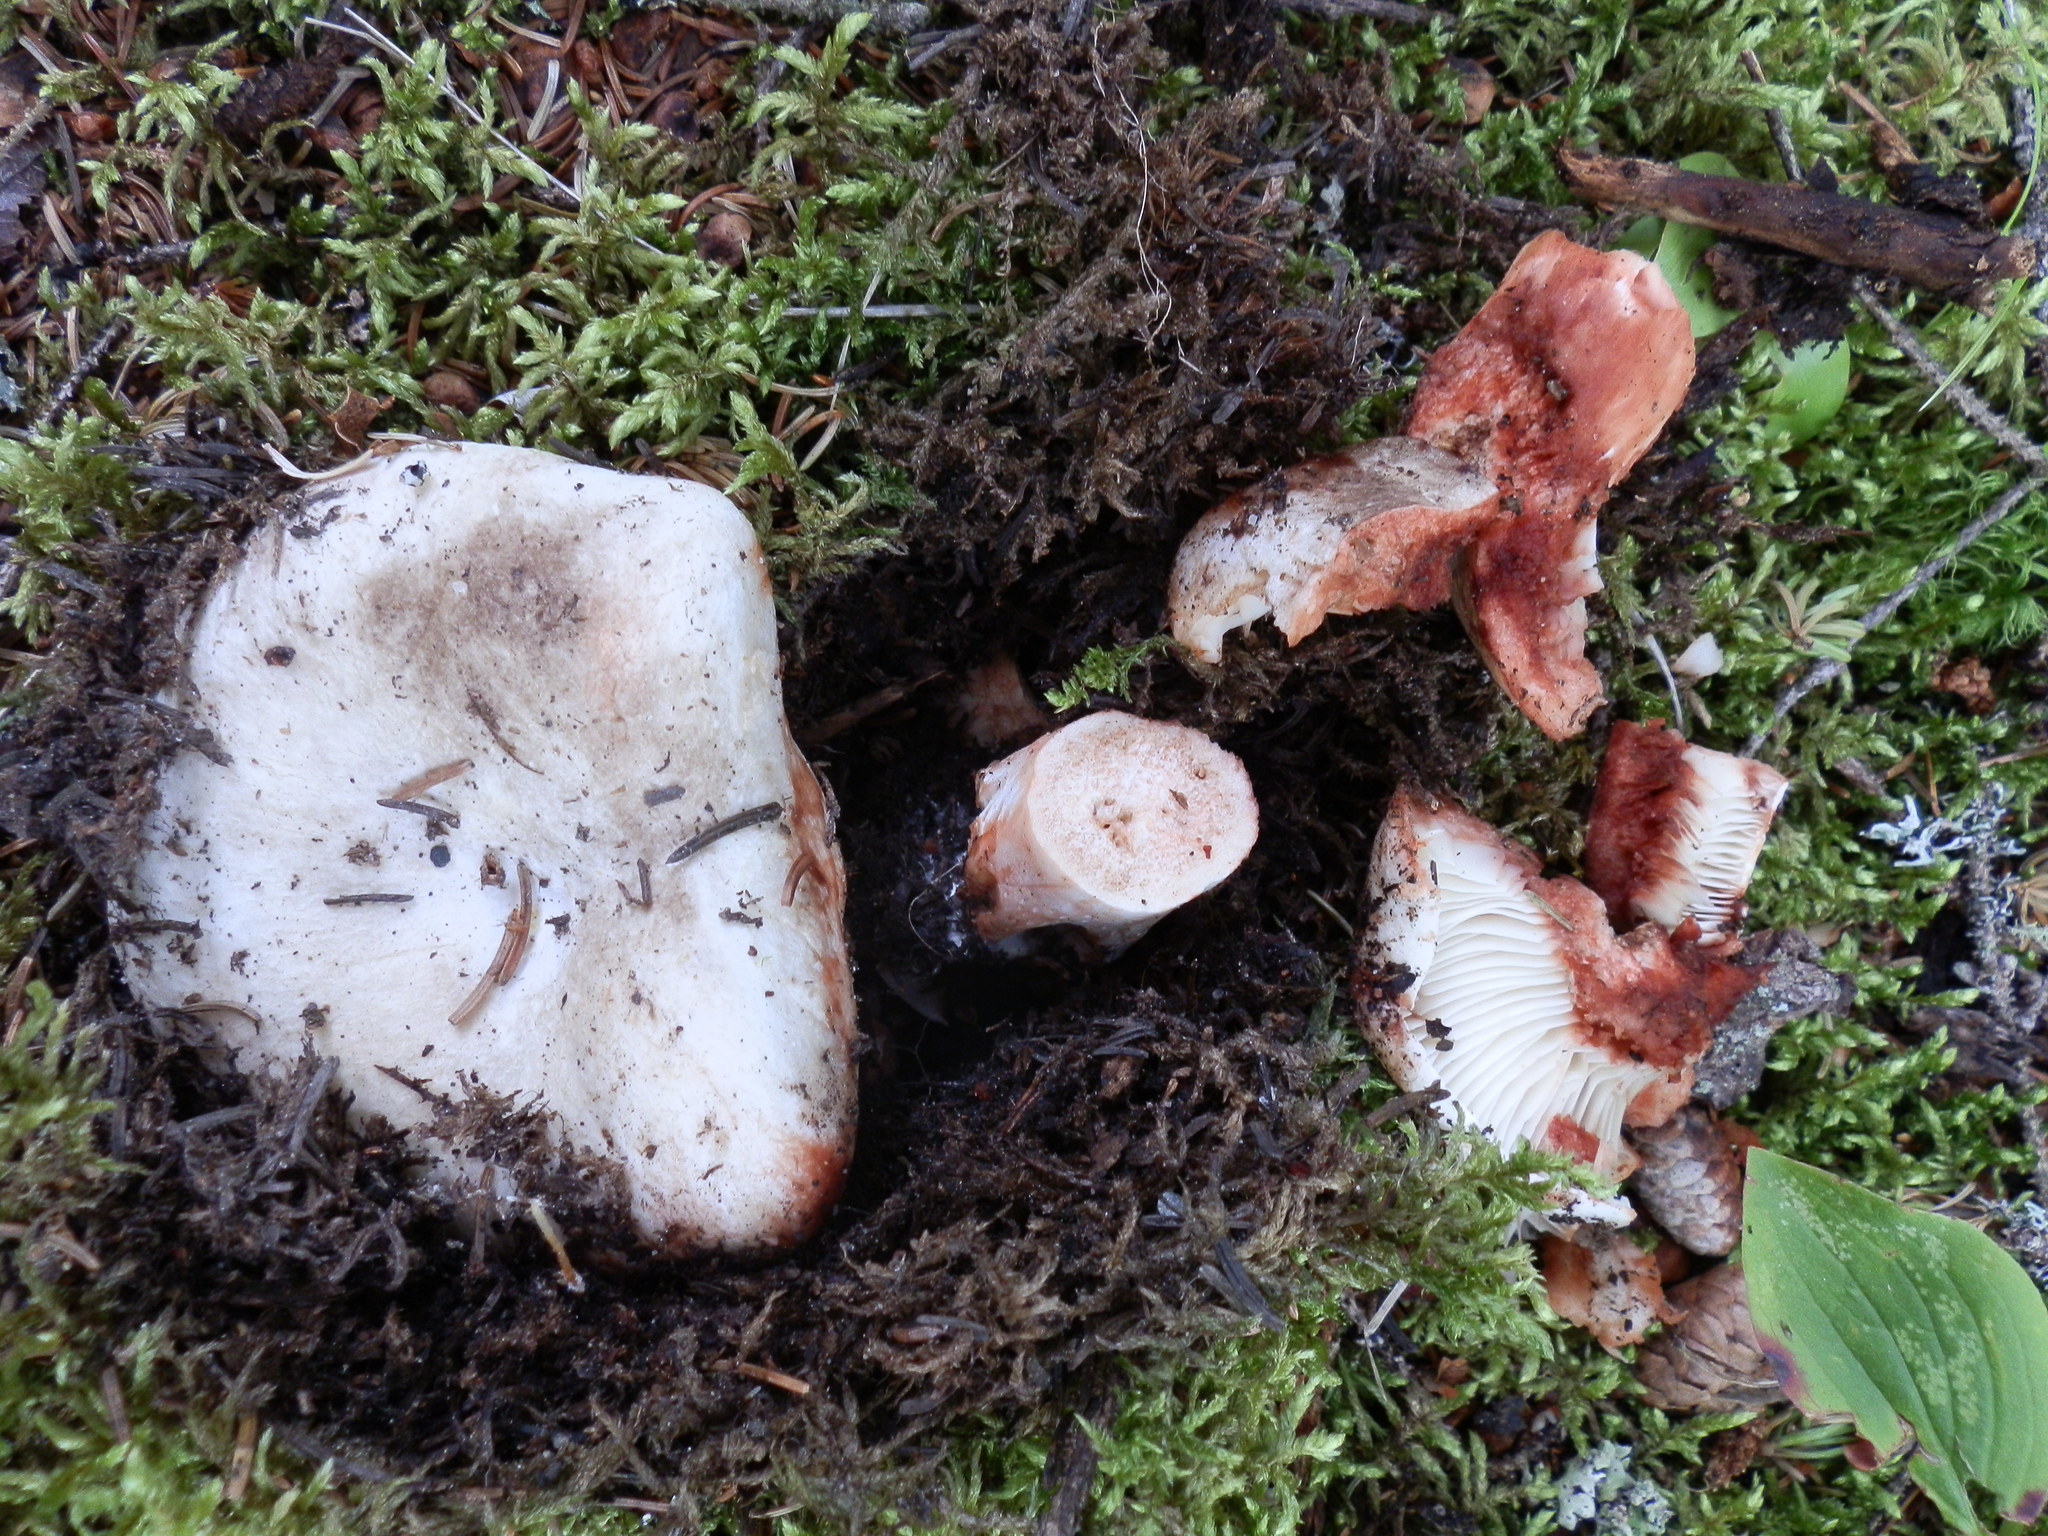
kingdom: Fungi
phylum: Basidiomycota
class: Agaricomycetes
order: Russulales
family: Russulaceae
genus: Russula
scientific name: Russula dissimulans
